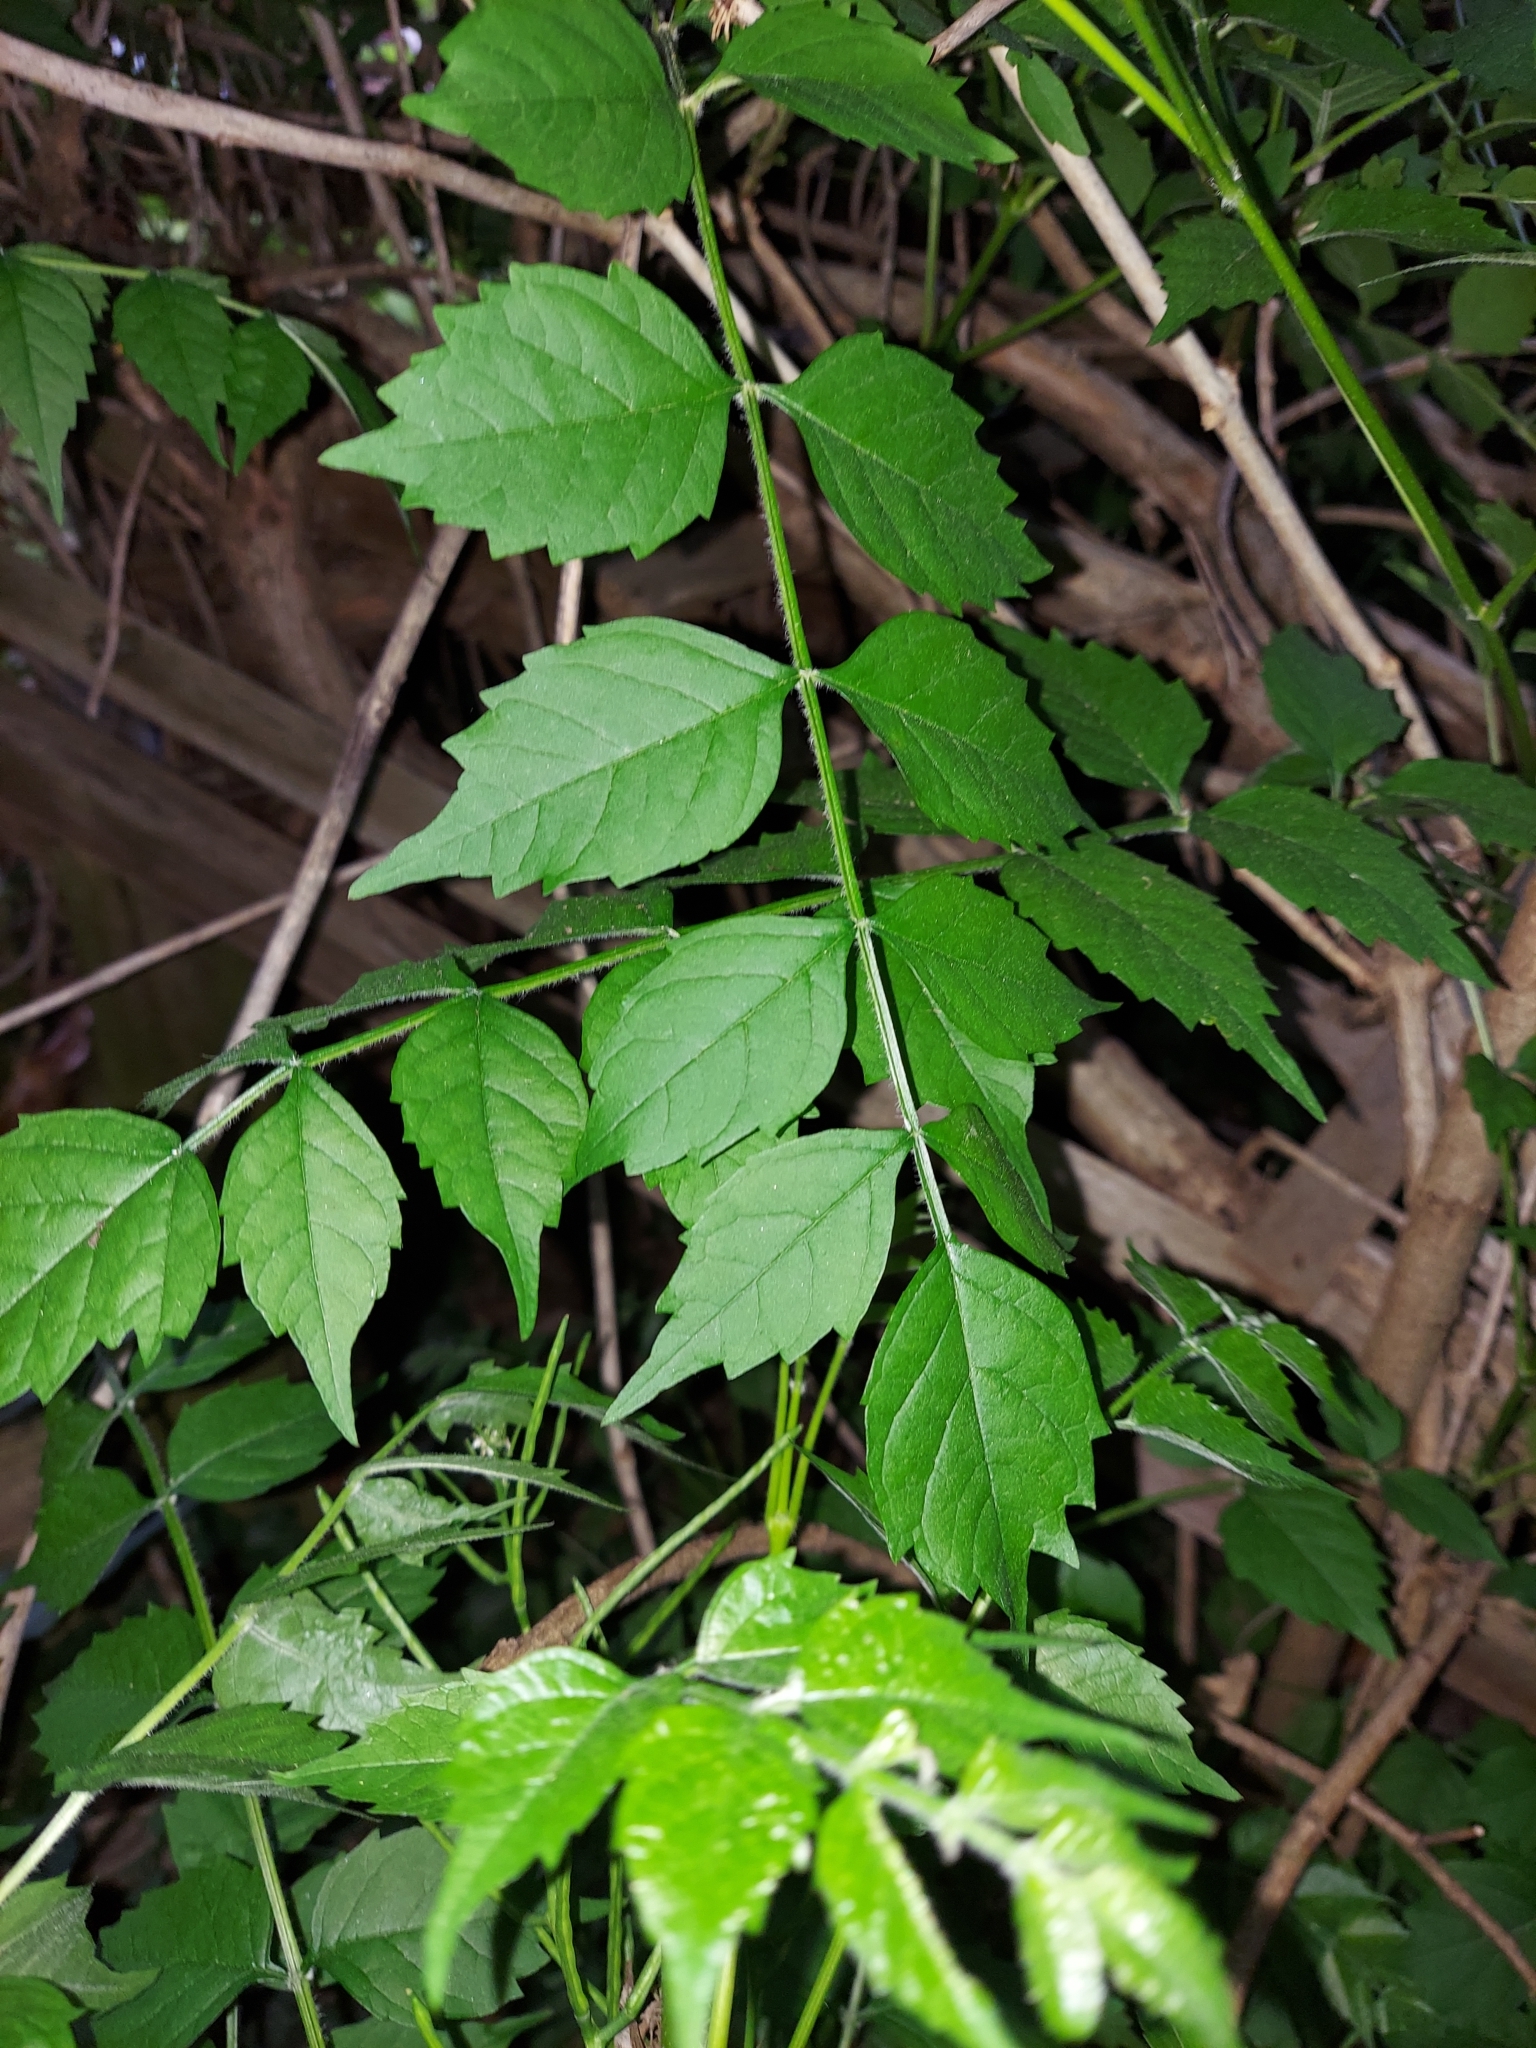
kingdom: Plantae
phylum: Tracheophyta
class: Magnoliopsida
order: Lamiales
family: Bignoniaceae
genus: Campsis
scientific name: Campsis radicans
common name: Trumpet-creeper
